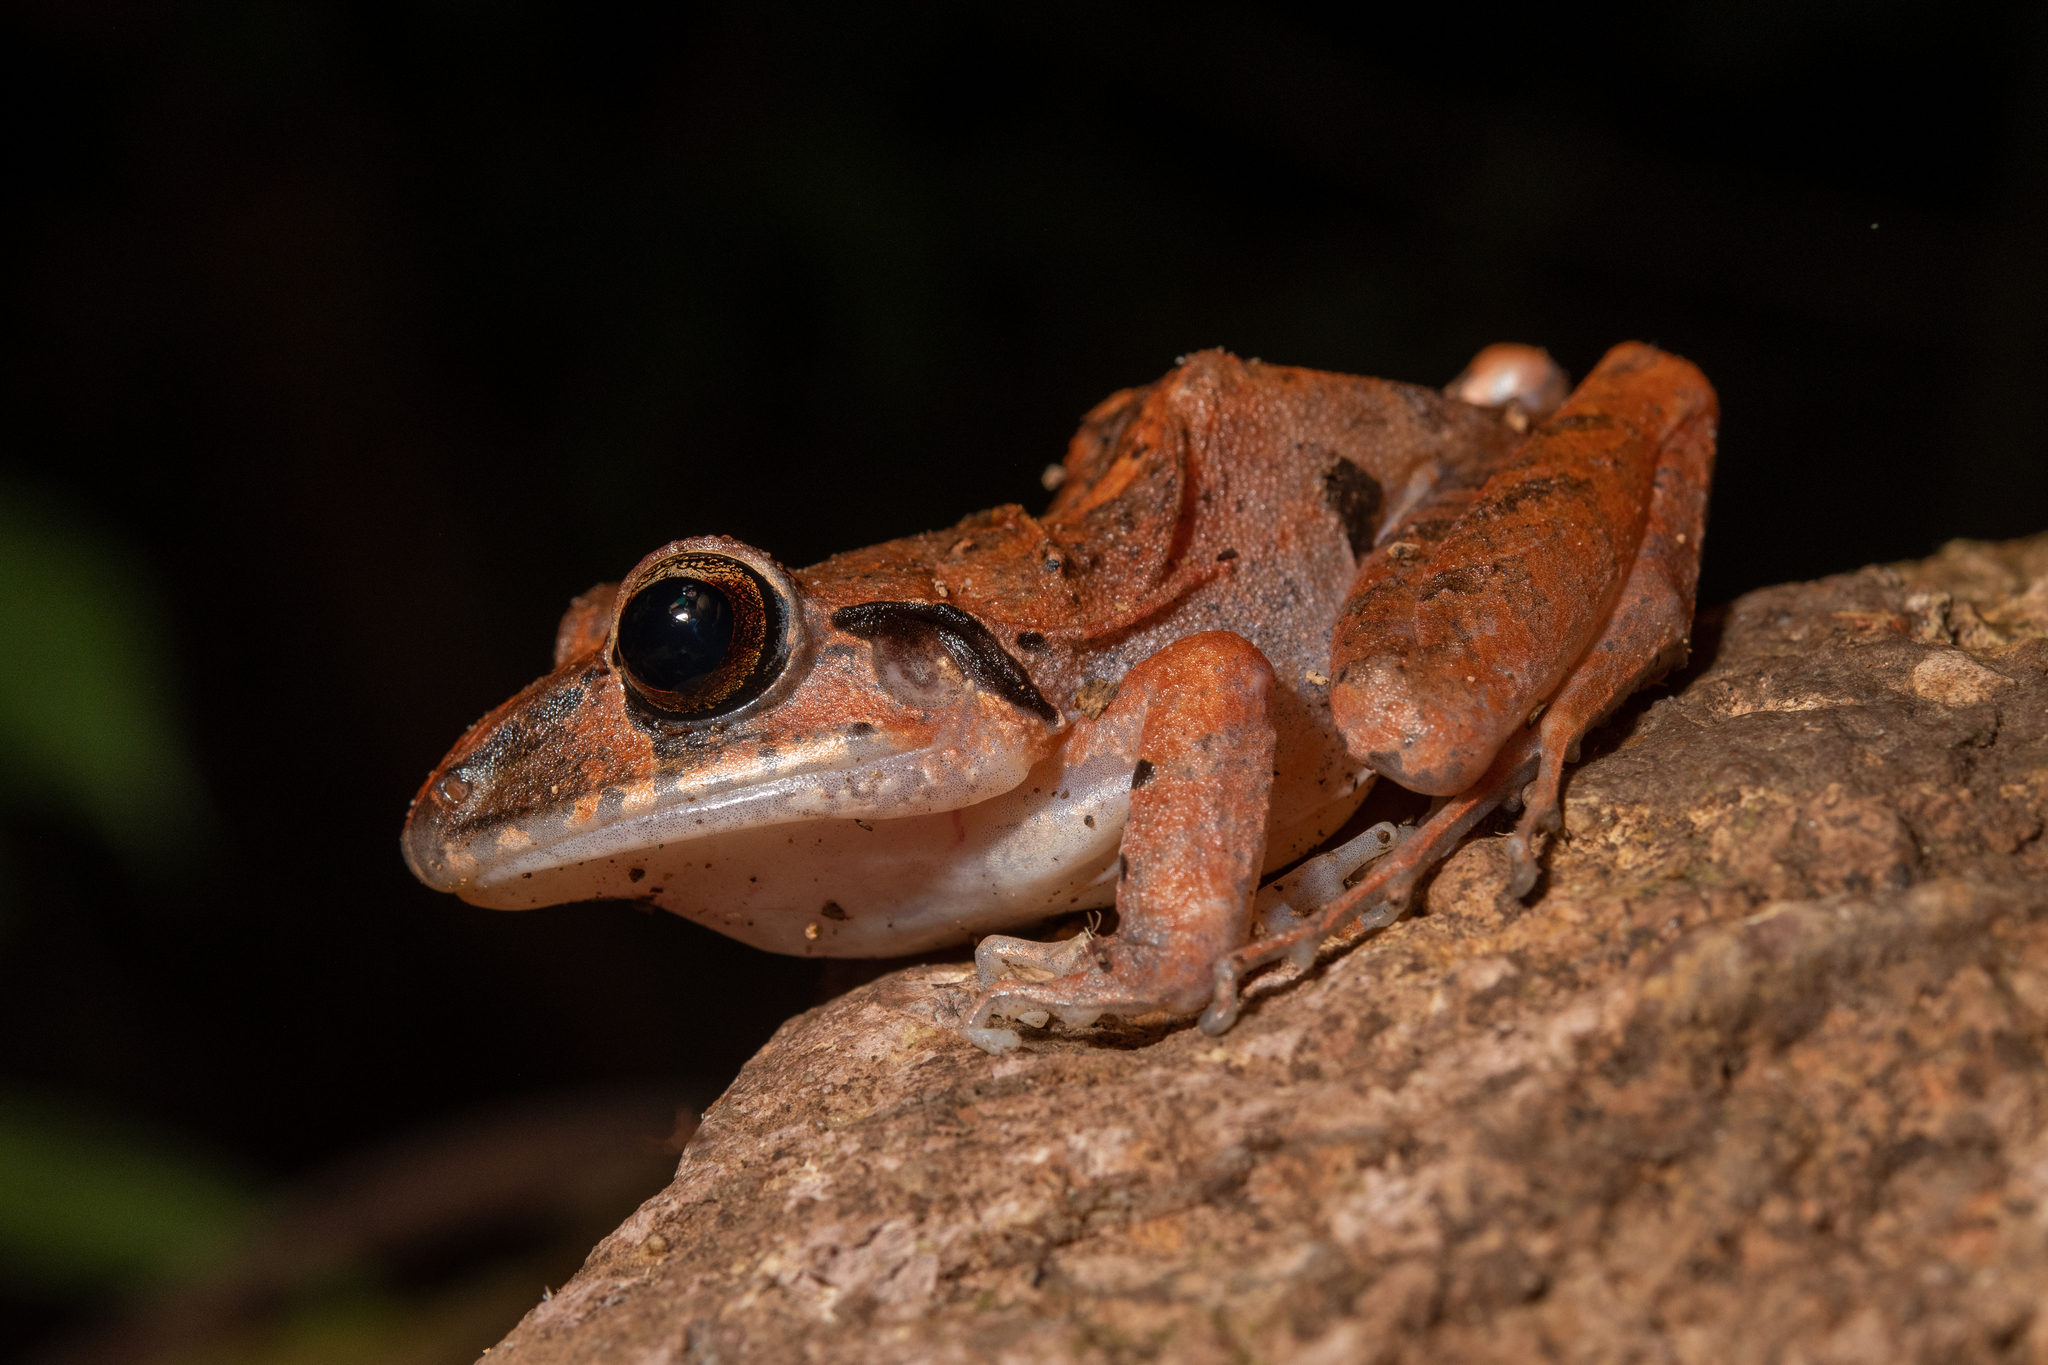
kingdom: Animalia
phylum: Chordata
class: Amphibia
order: Anura
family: Craugastoridae
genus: Craugastor
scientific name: Craugastor laticeps
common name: Broad-headed cave frog
